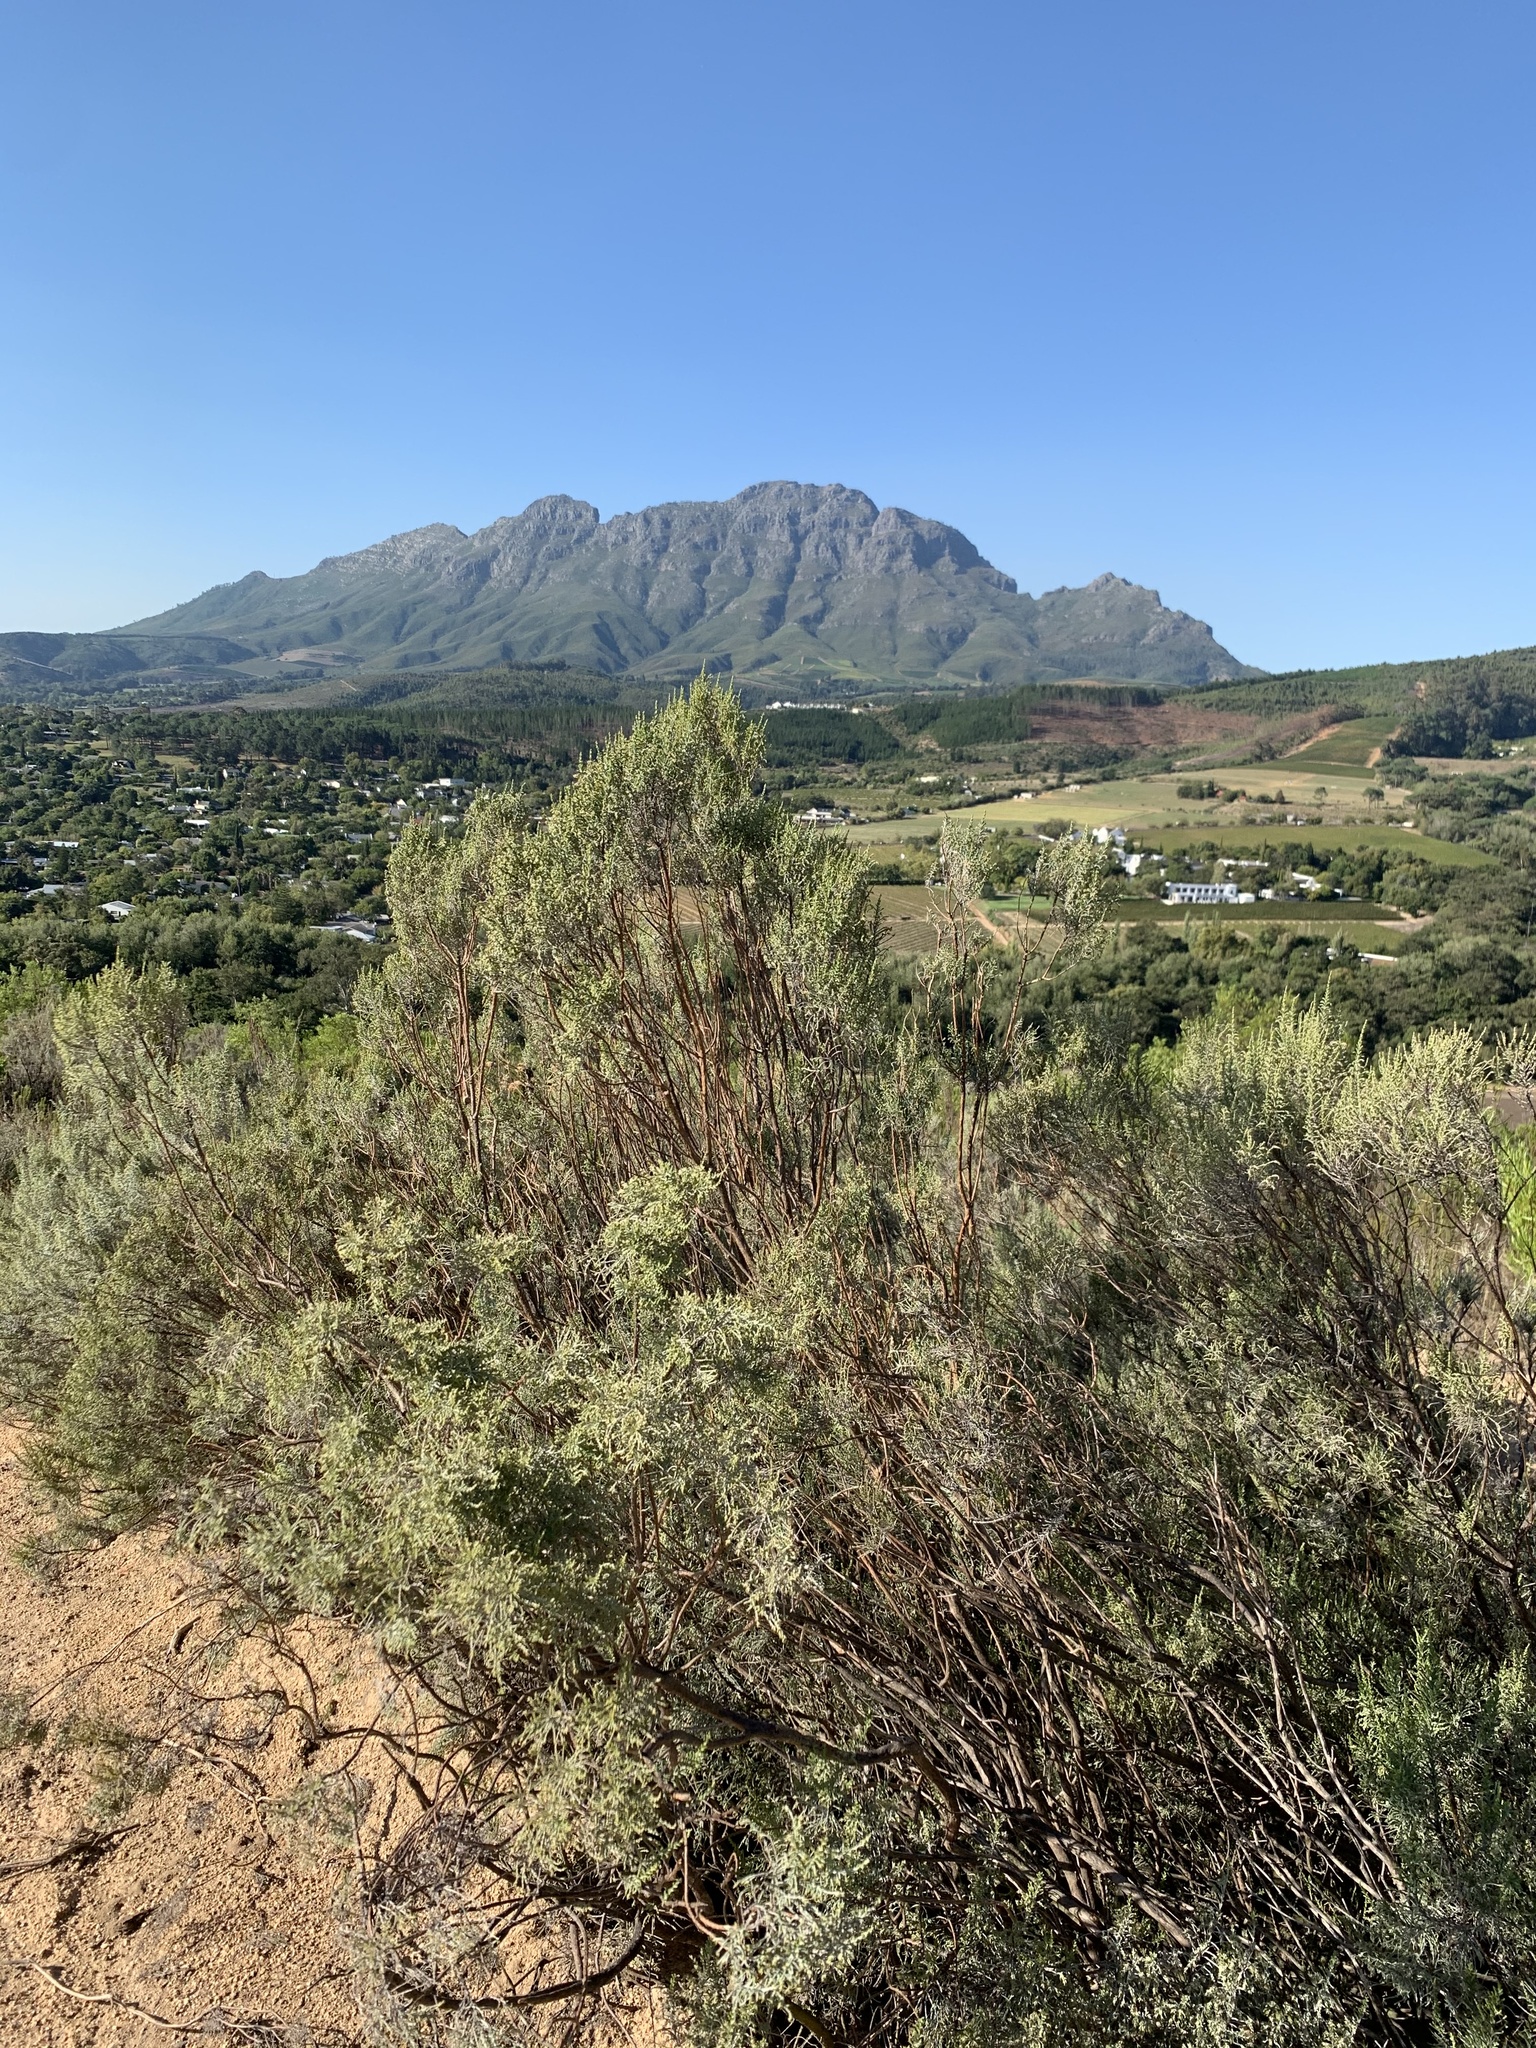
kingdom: Plantae
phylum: Tracheophyta
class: Magnoliopsida
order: Asterales
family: Asteraceae
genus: Dicerothamnus
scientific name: Dicerothamnus rhinocerotis
